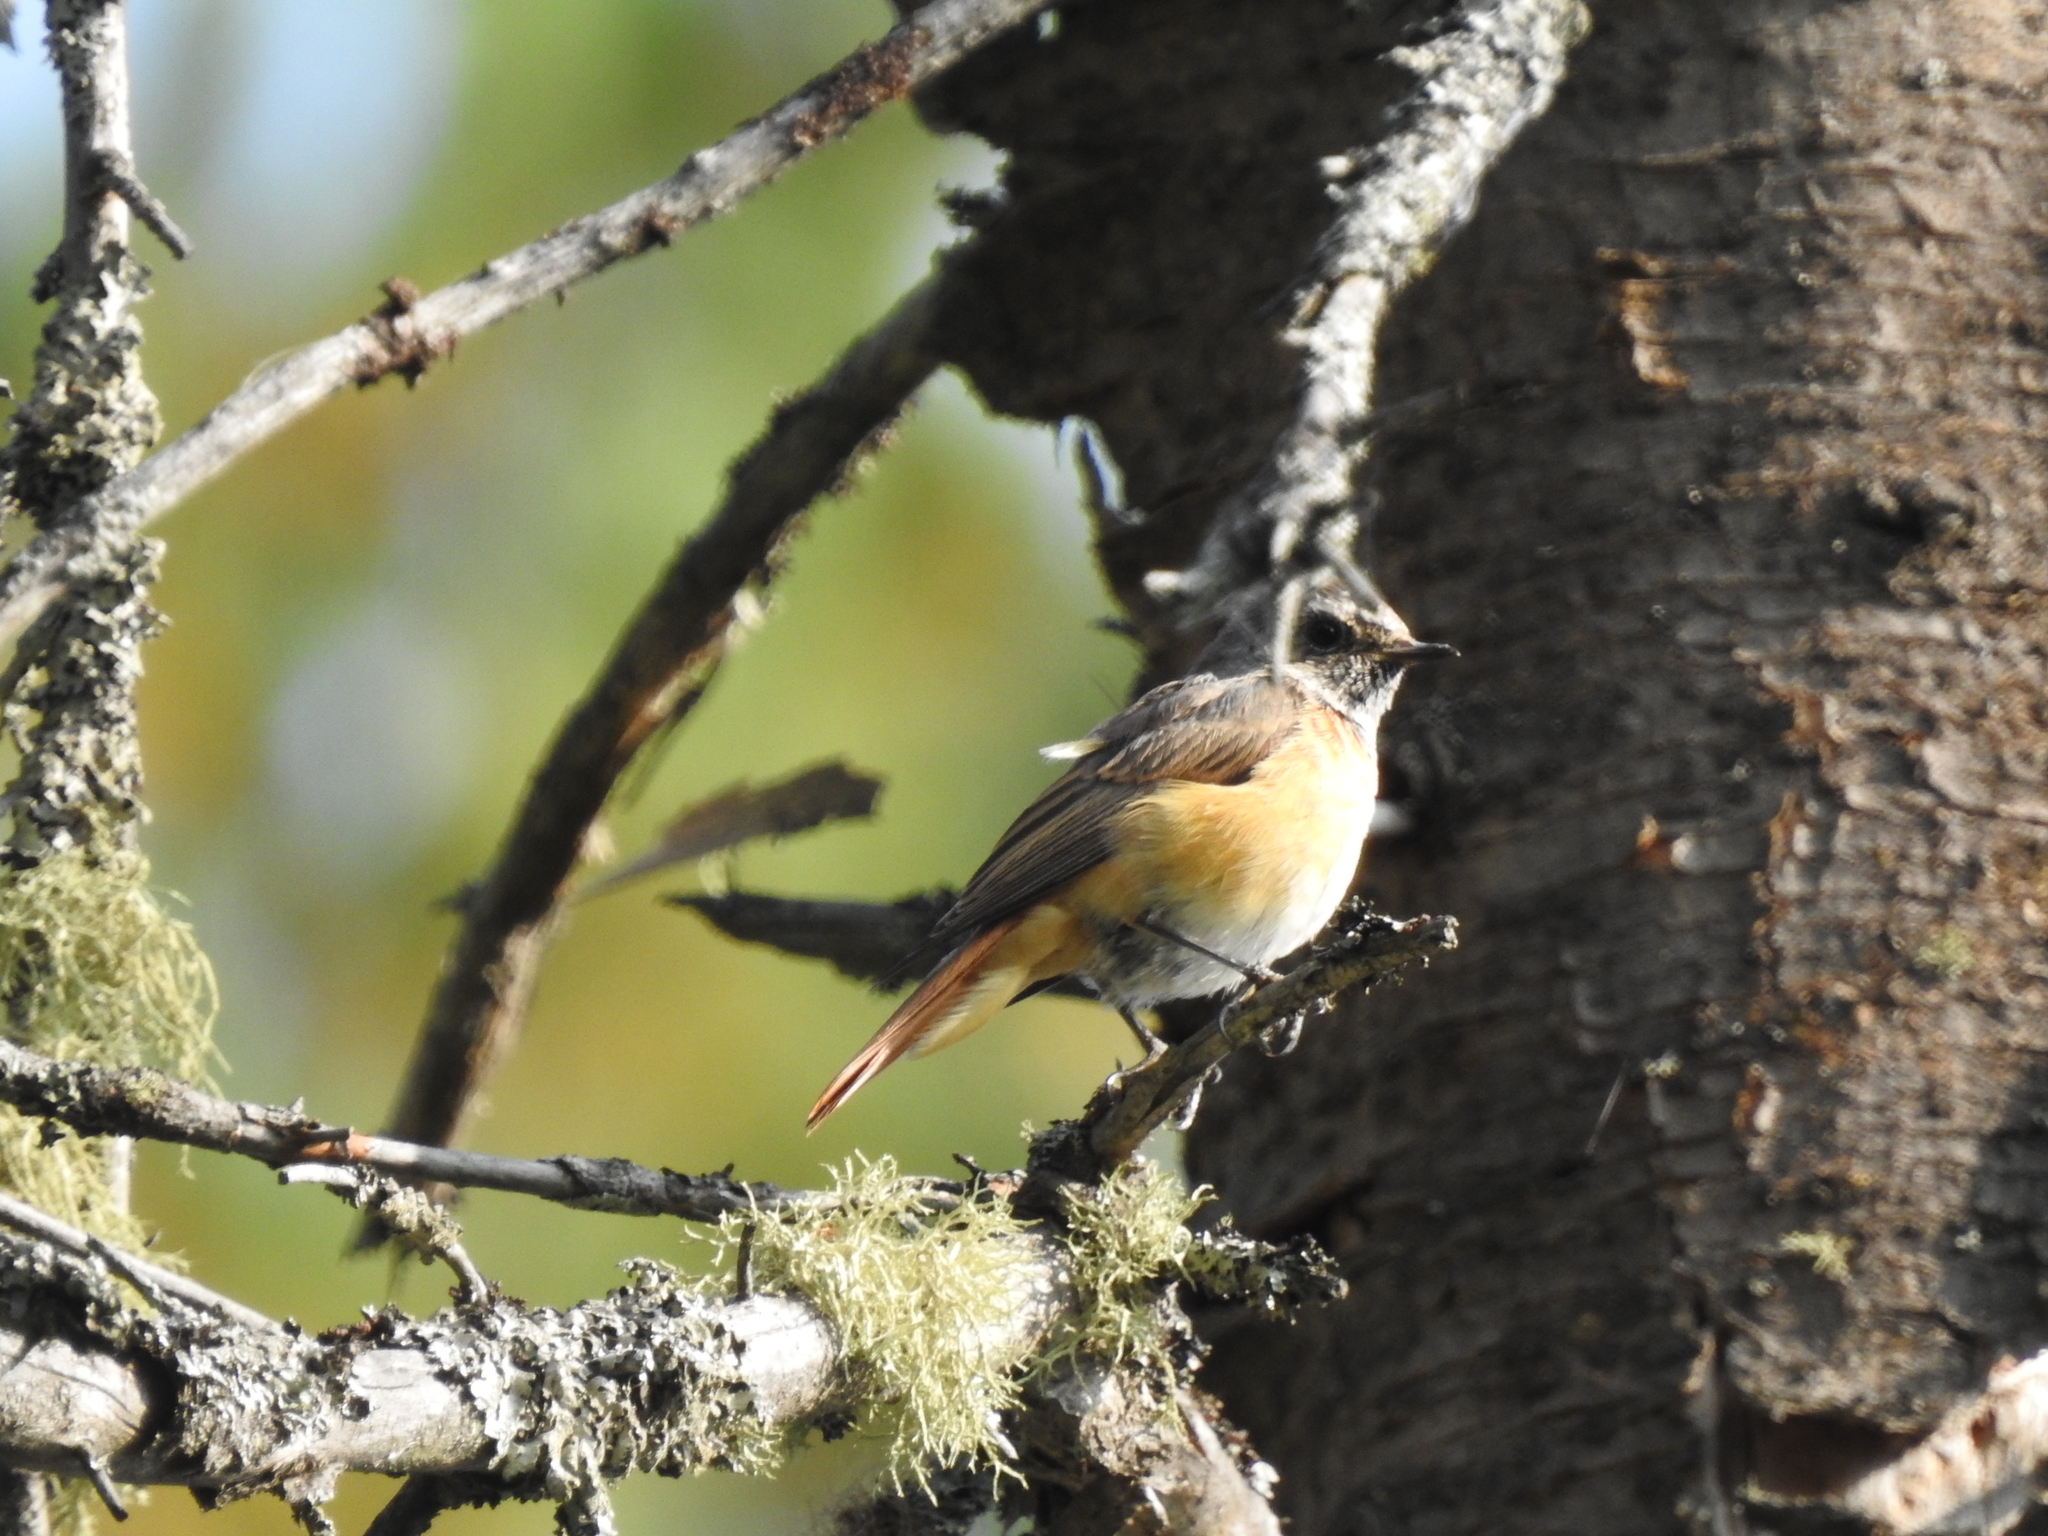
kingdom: Animalia
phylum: Chordata
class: Aves
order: Passeriformes
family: Muscicapidae
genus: Phoenicurus
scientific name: Phoenicurus phoenicurus
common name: Common redstart
